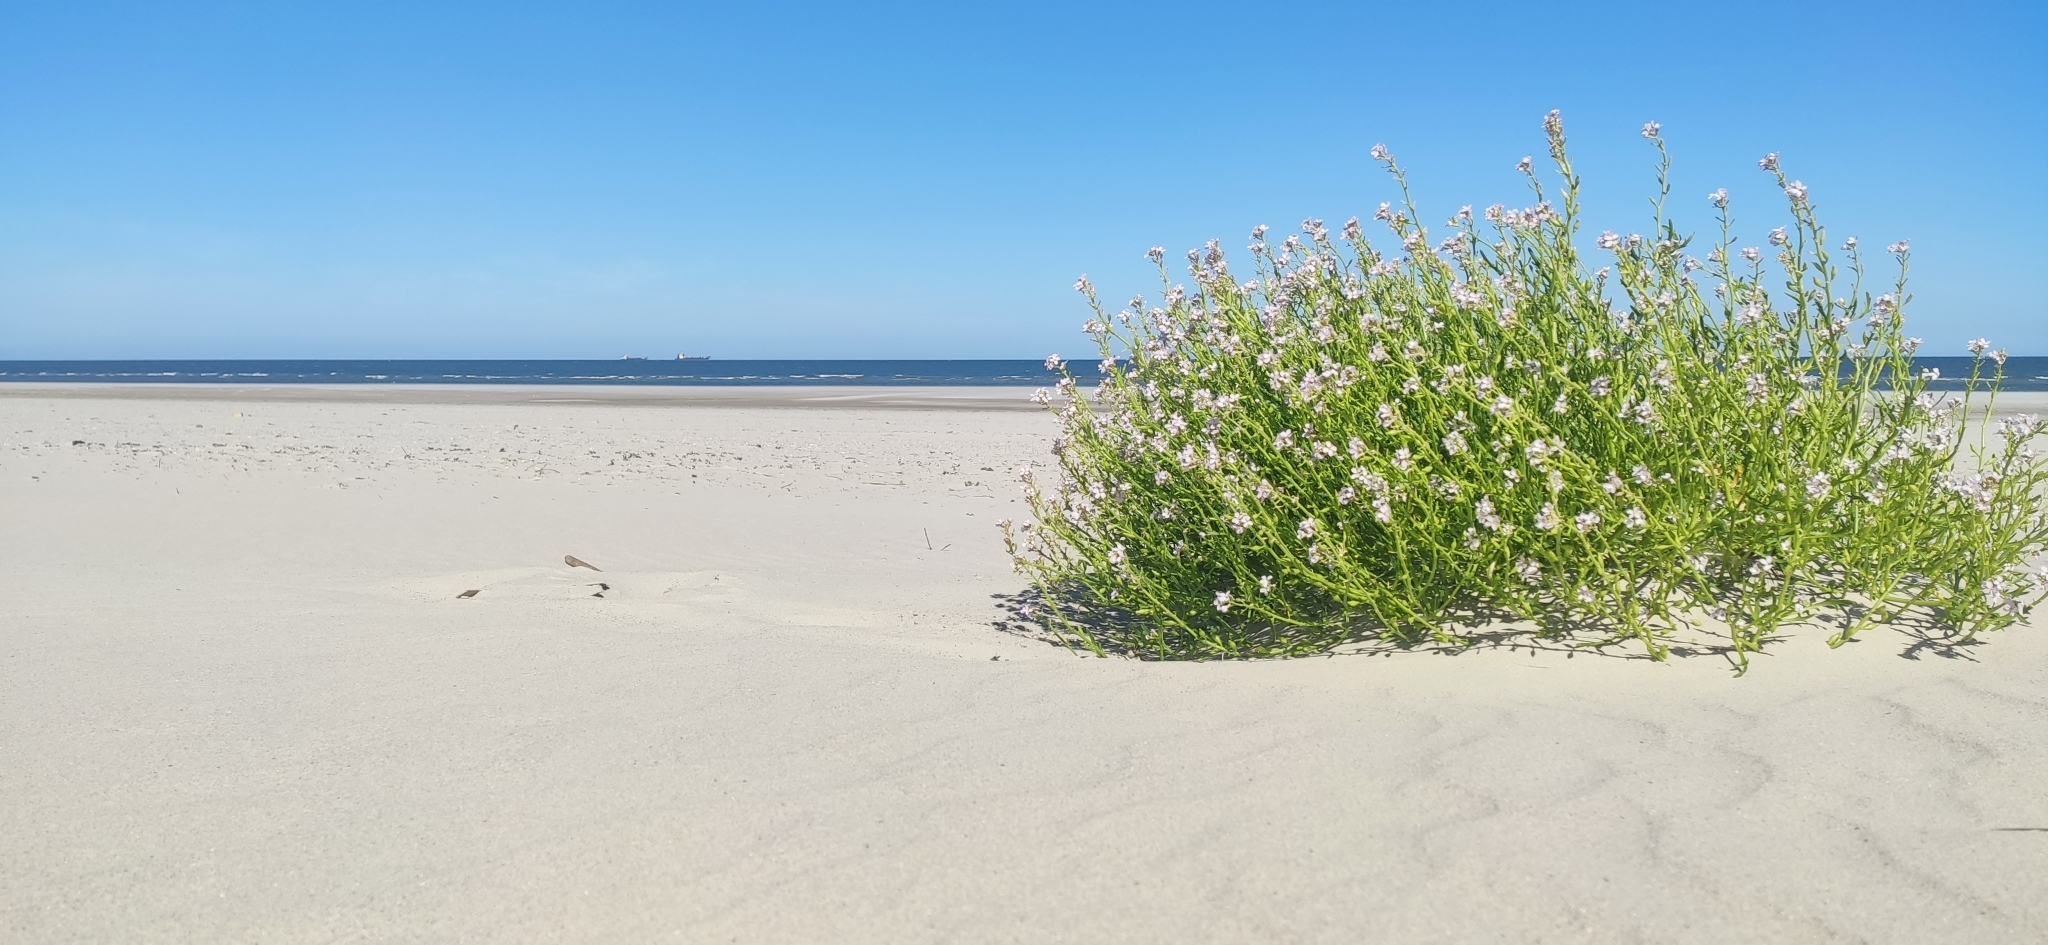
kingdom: Plantae
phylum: Tracheophyta
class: Magnoliopsida
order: Brassicales
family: Brassicaceae
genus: Cakile
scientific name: Cakile maritima
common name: Sea rocket
